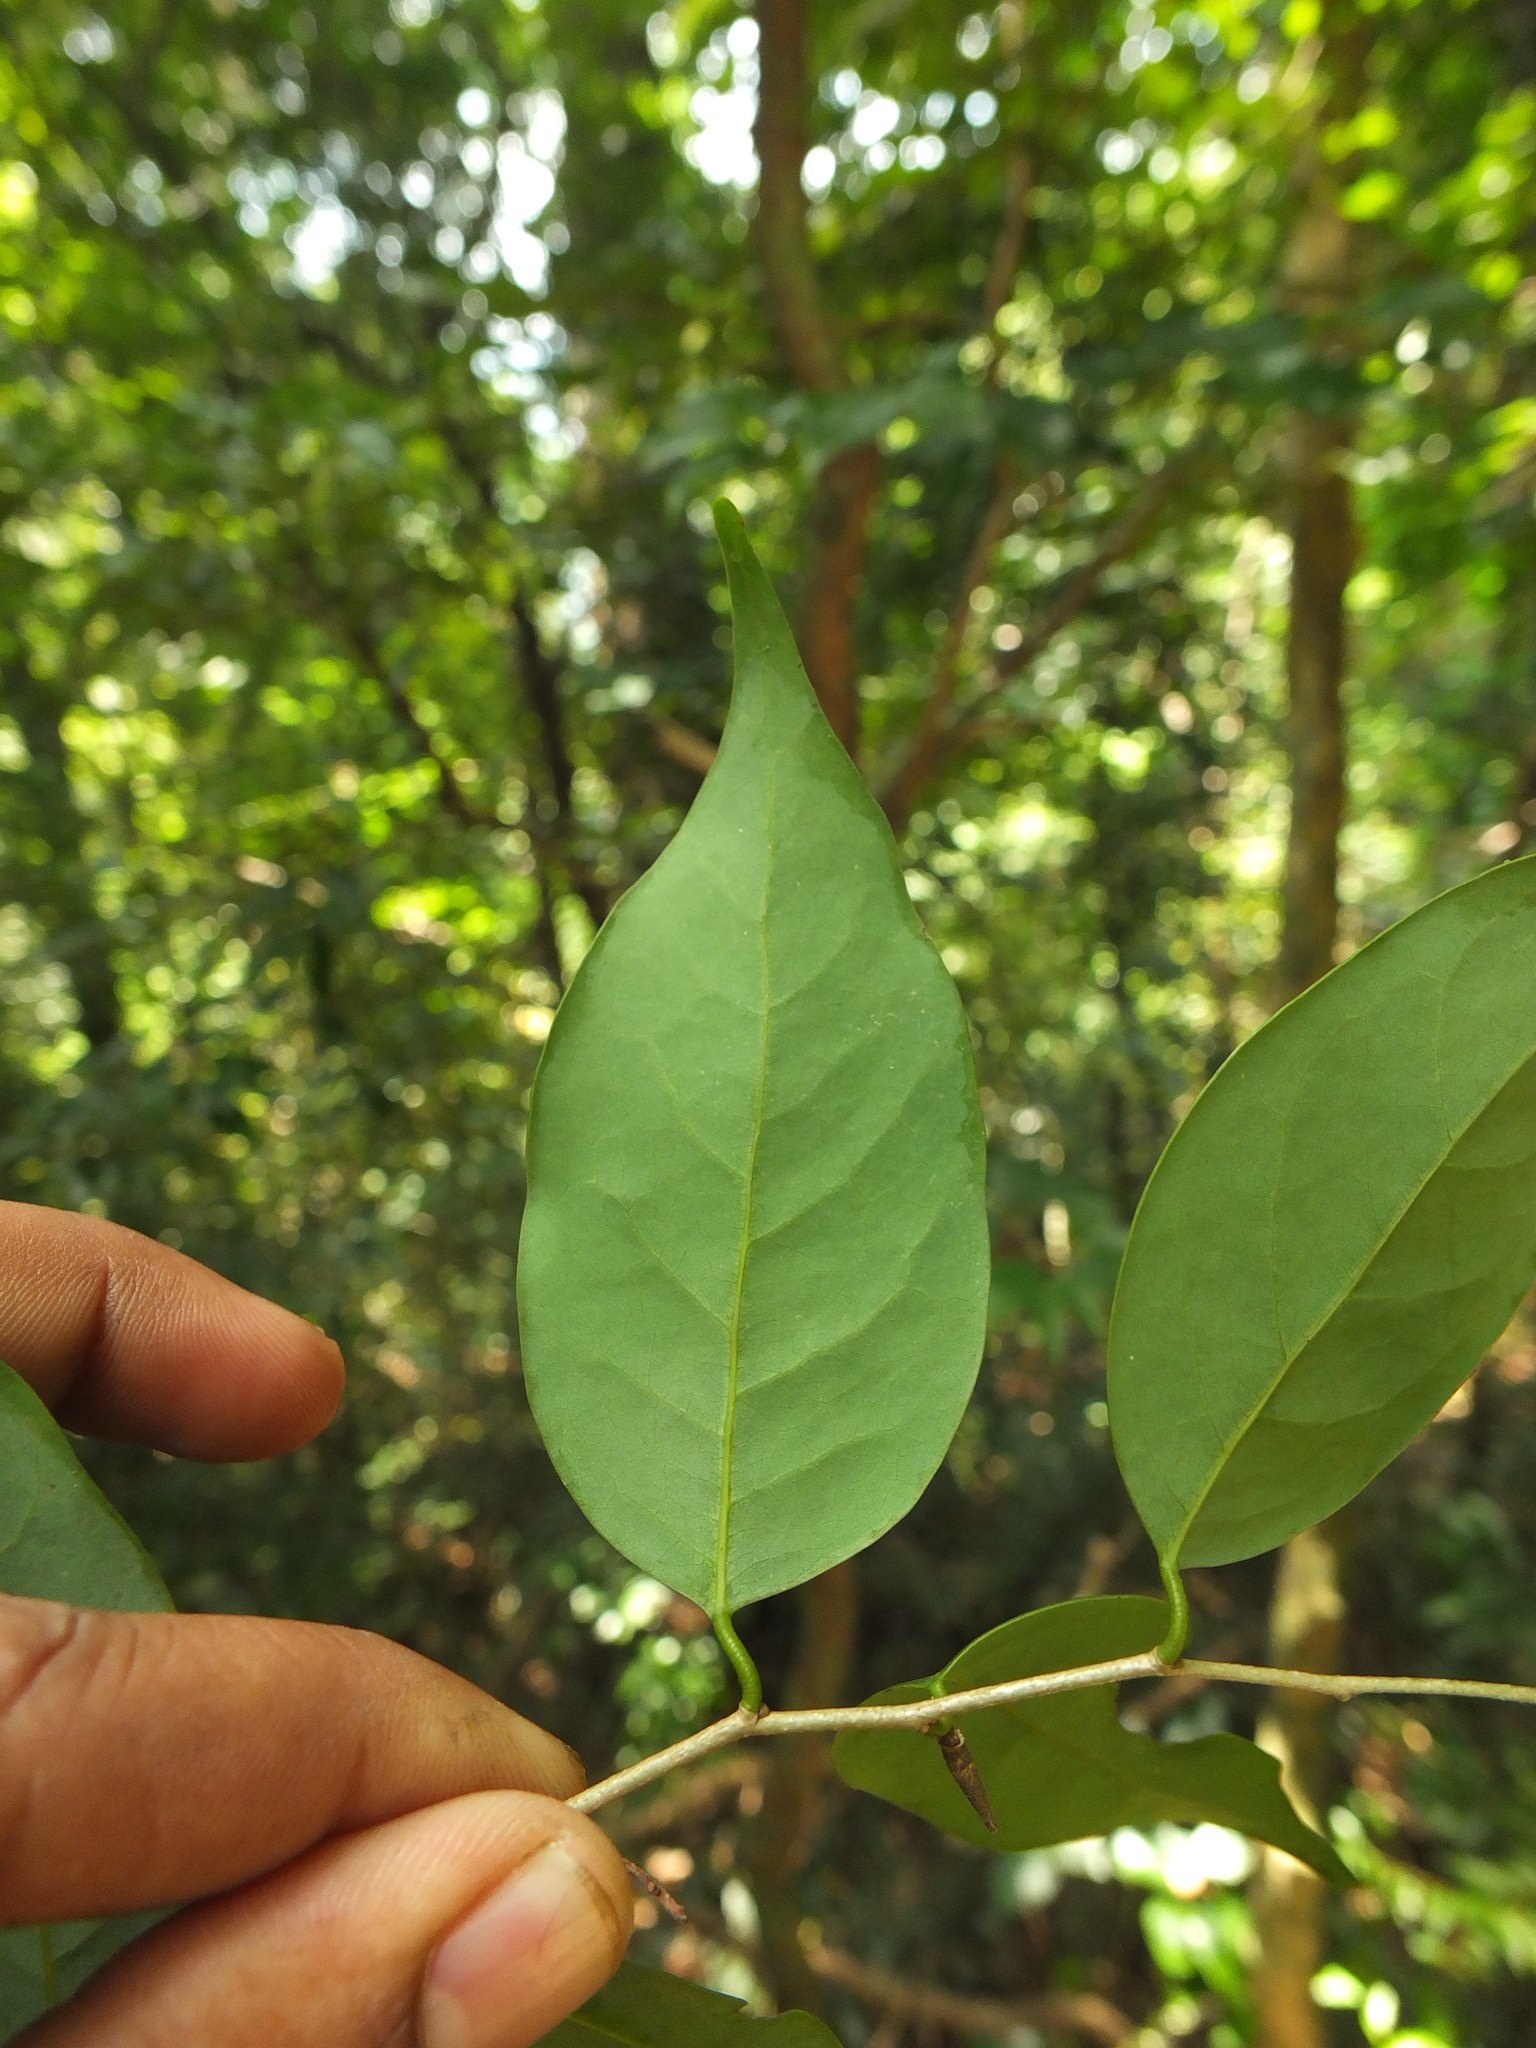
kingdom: Plantae
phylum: Tracheophyta
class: Magnoliopsida
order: Malpighiales
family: Euphorbiaceae
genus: Croton
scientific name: Croton lawianus
